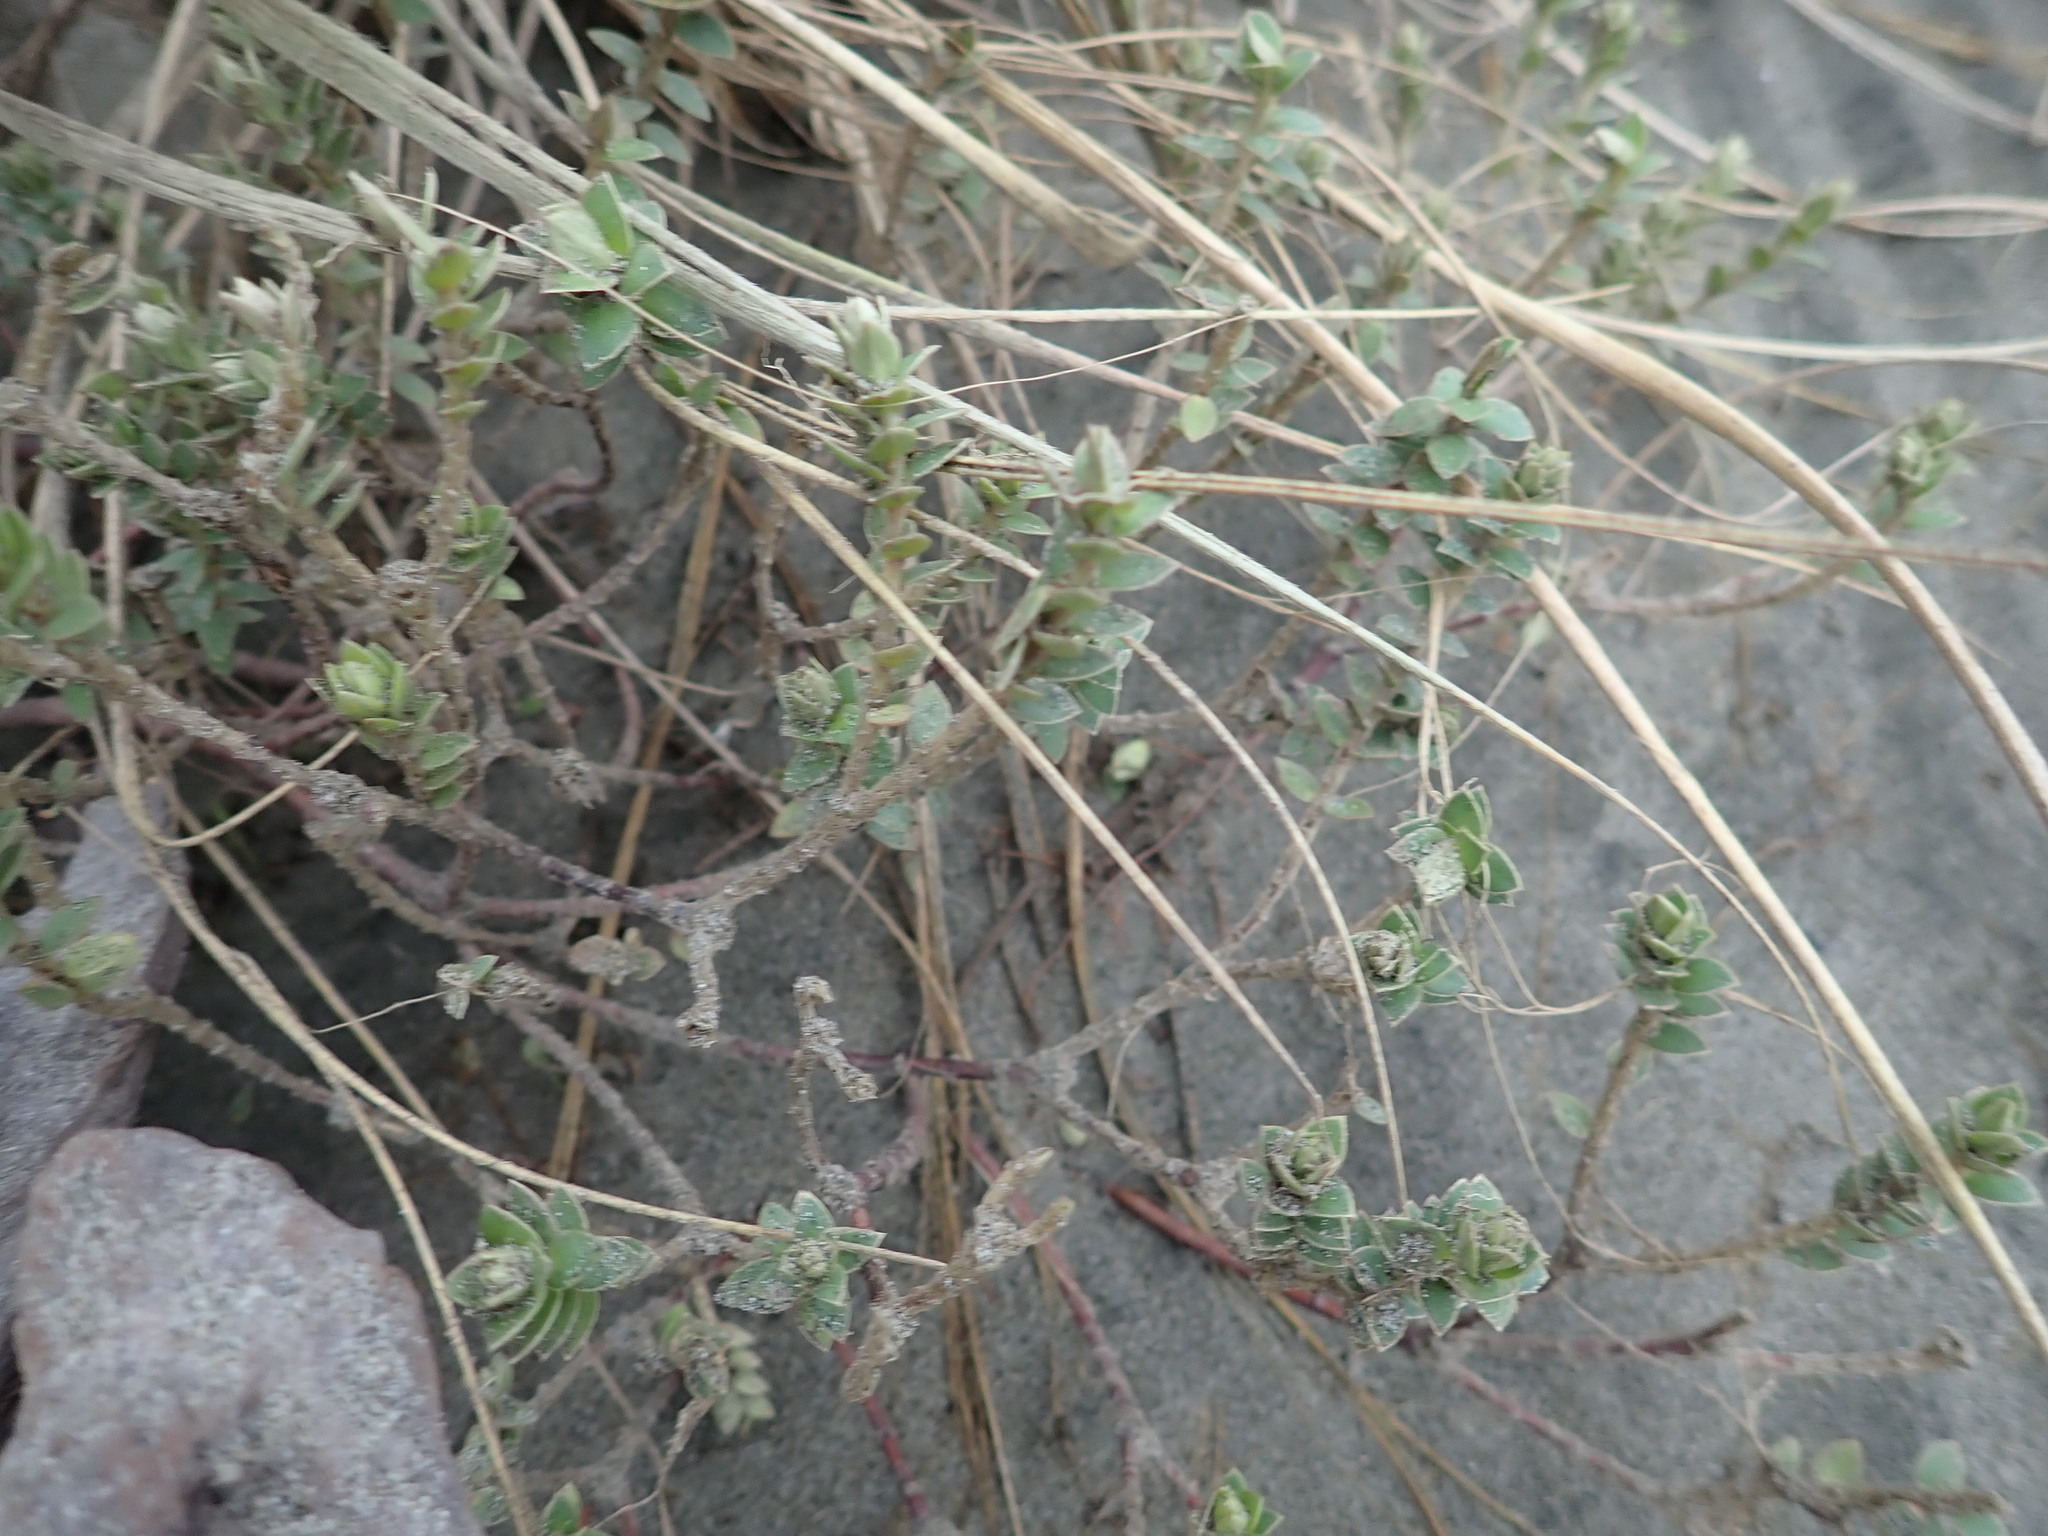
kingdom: Plantae
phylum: Tracheophyta
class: Magnoliopsida
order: Malvales
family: Thymelaeaceae
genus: Pimelea
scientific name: Pimelea villosa
